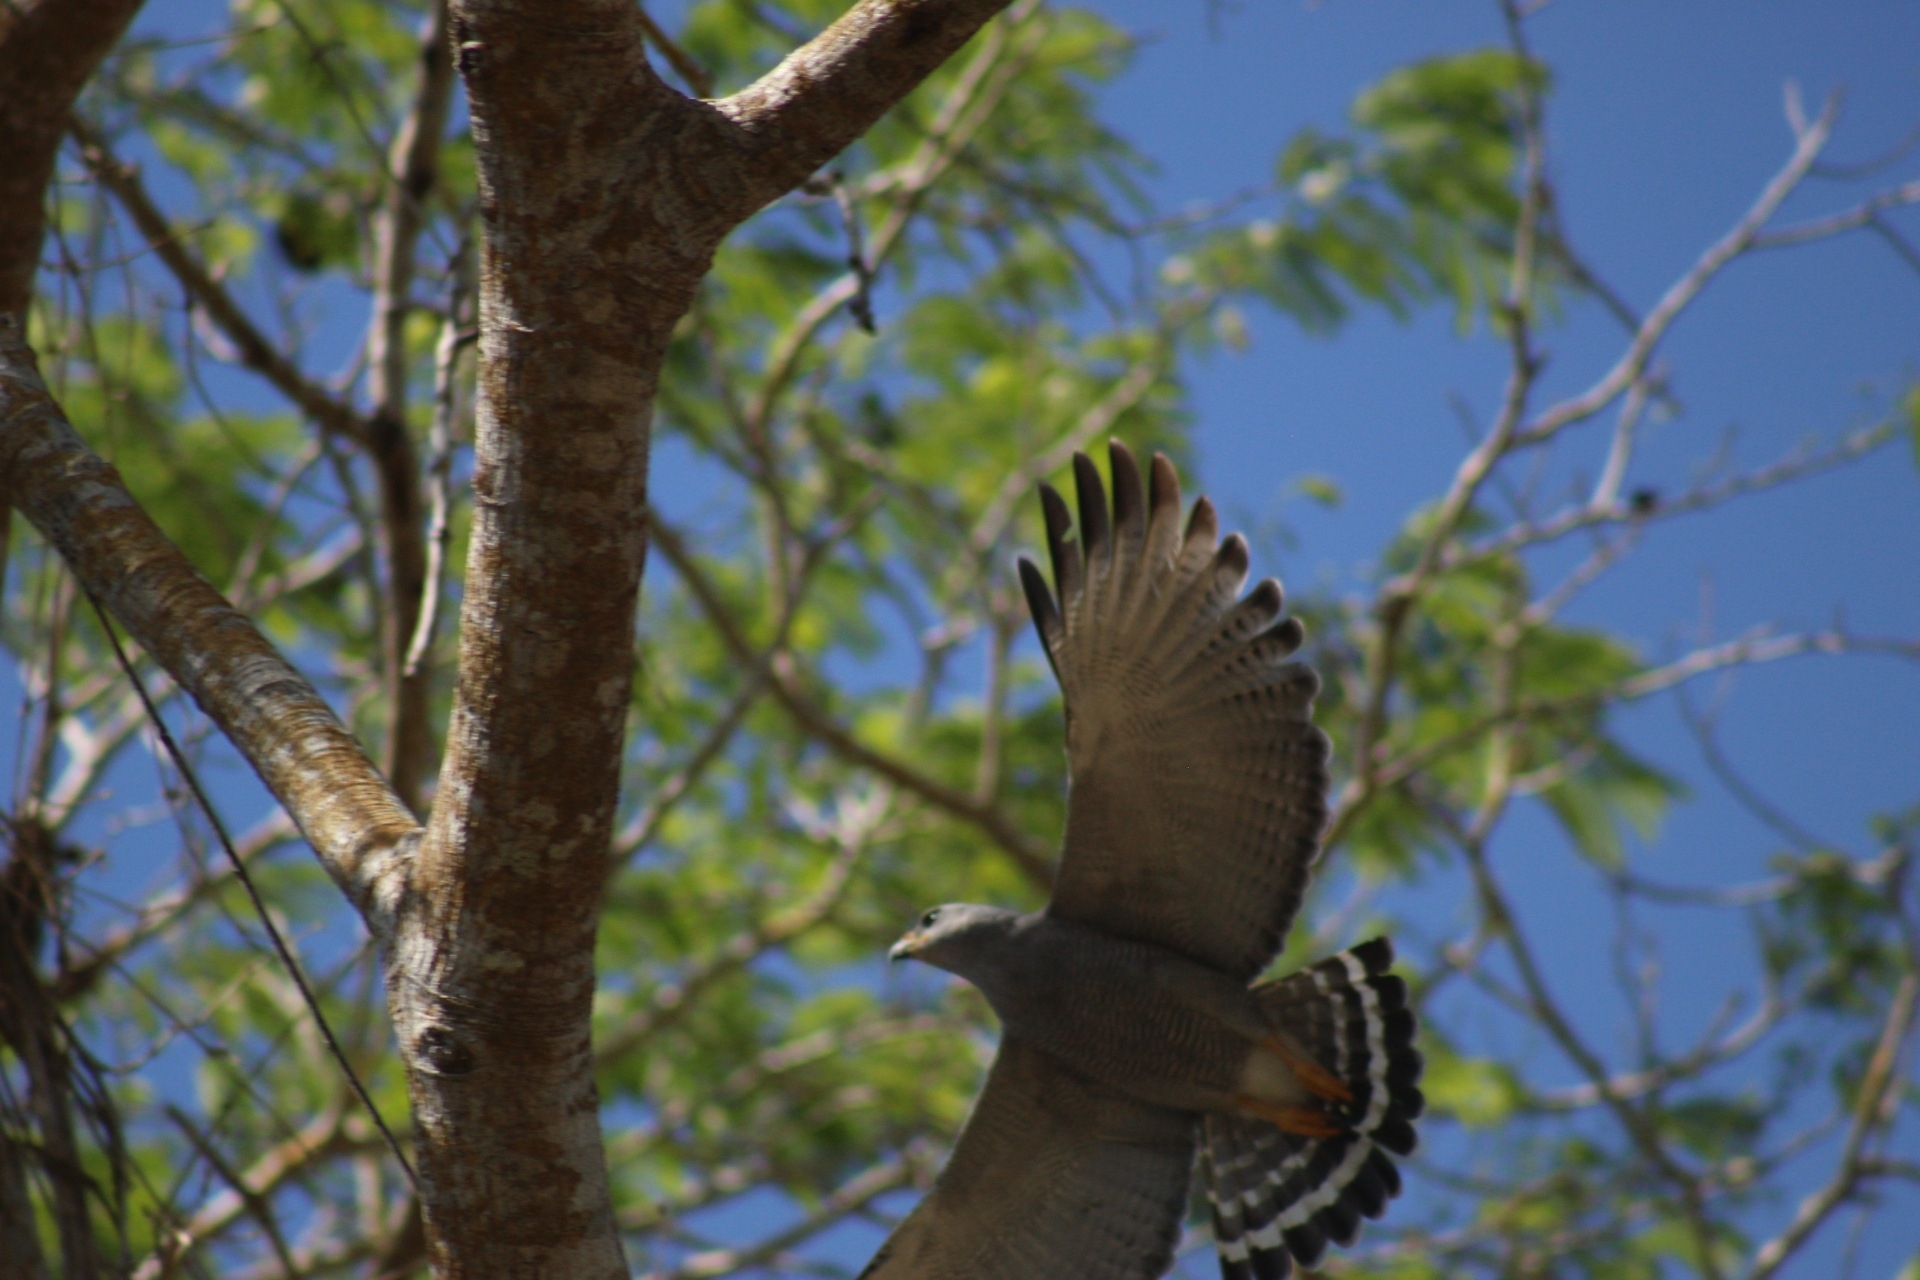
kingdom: Animalia
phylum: Chordata
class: Aves
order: Accipitriformes
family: Accipitridae
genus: Buteo
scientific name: Buteo nitidus
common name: Grey-lined hawk
